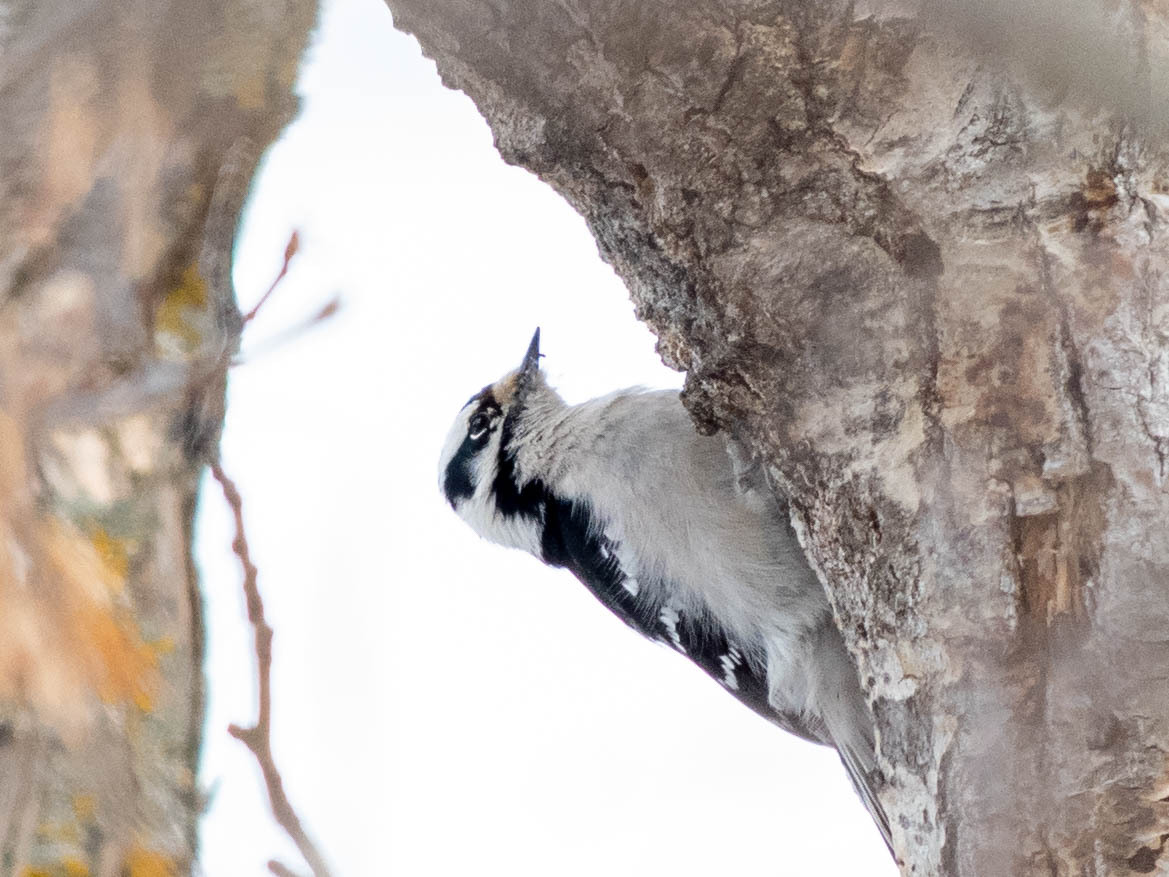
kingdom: Animalia
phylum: Chordata
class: Aves
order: Piciformes
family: Picidae
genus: Dryobates
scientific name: Dryobates pubescens
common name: Downy woodpecker
